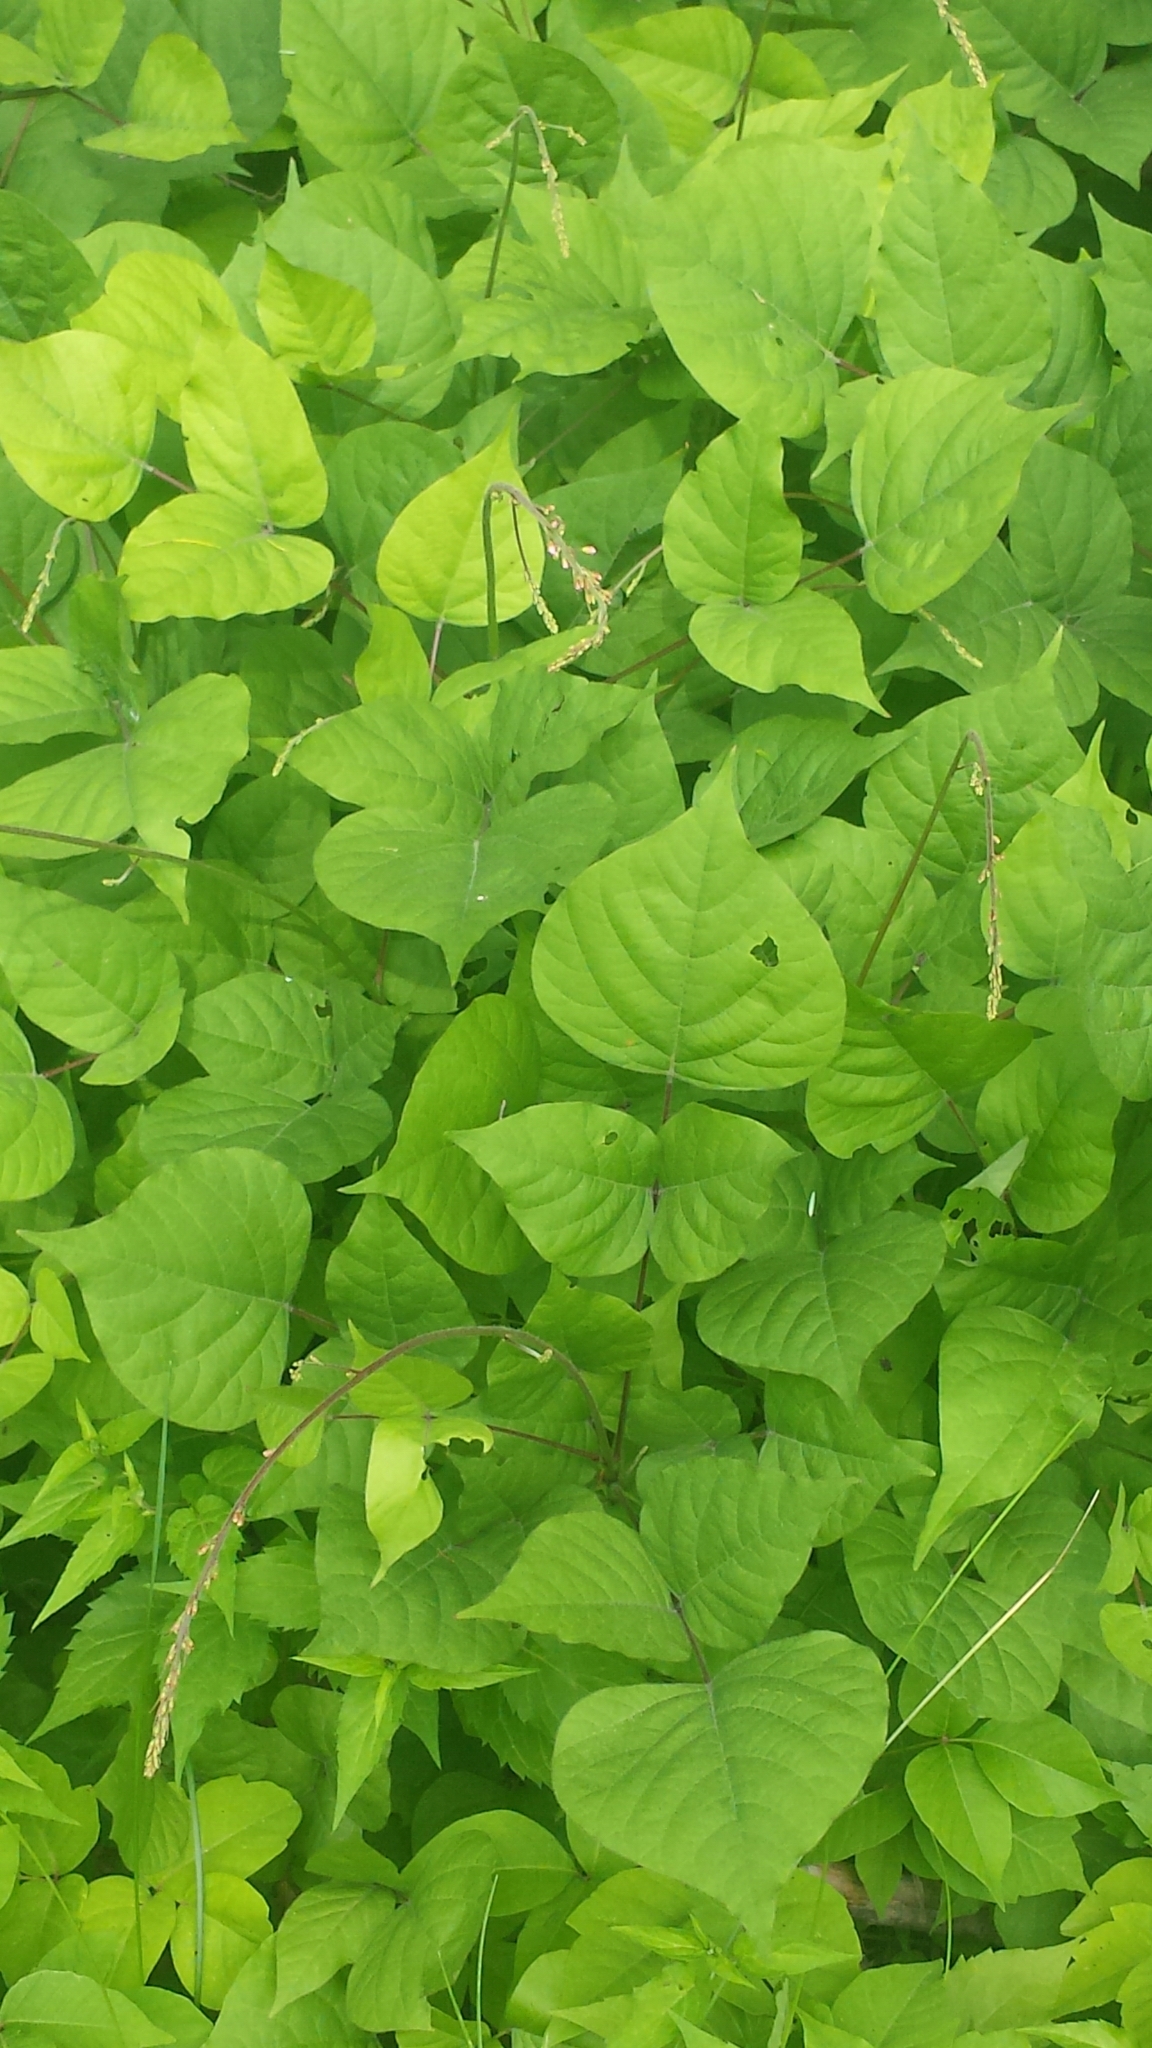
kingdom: Plantae
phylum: Tracheophyta
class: Magnoliopsida
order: Fabales
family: Fabaceae
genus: Hylodesmum
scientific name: Hylodesmum glutinosum
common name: Clustered-leaved tick-trefoil
